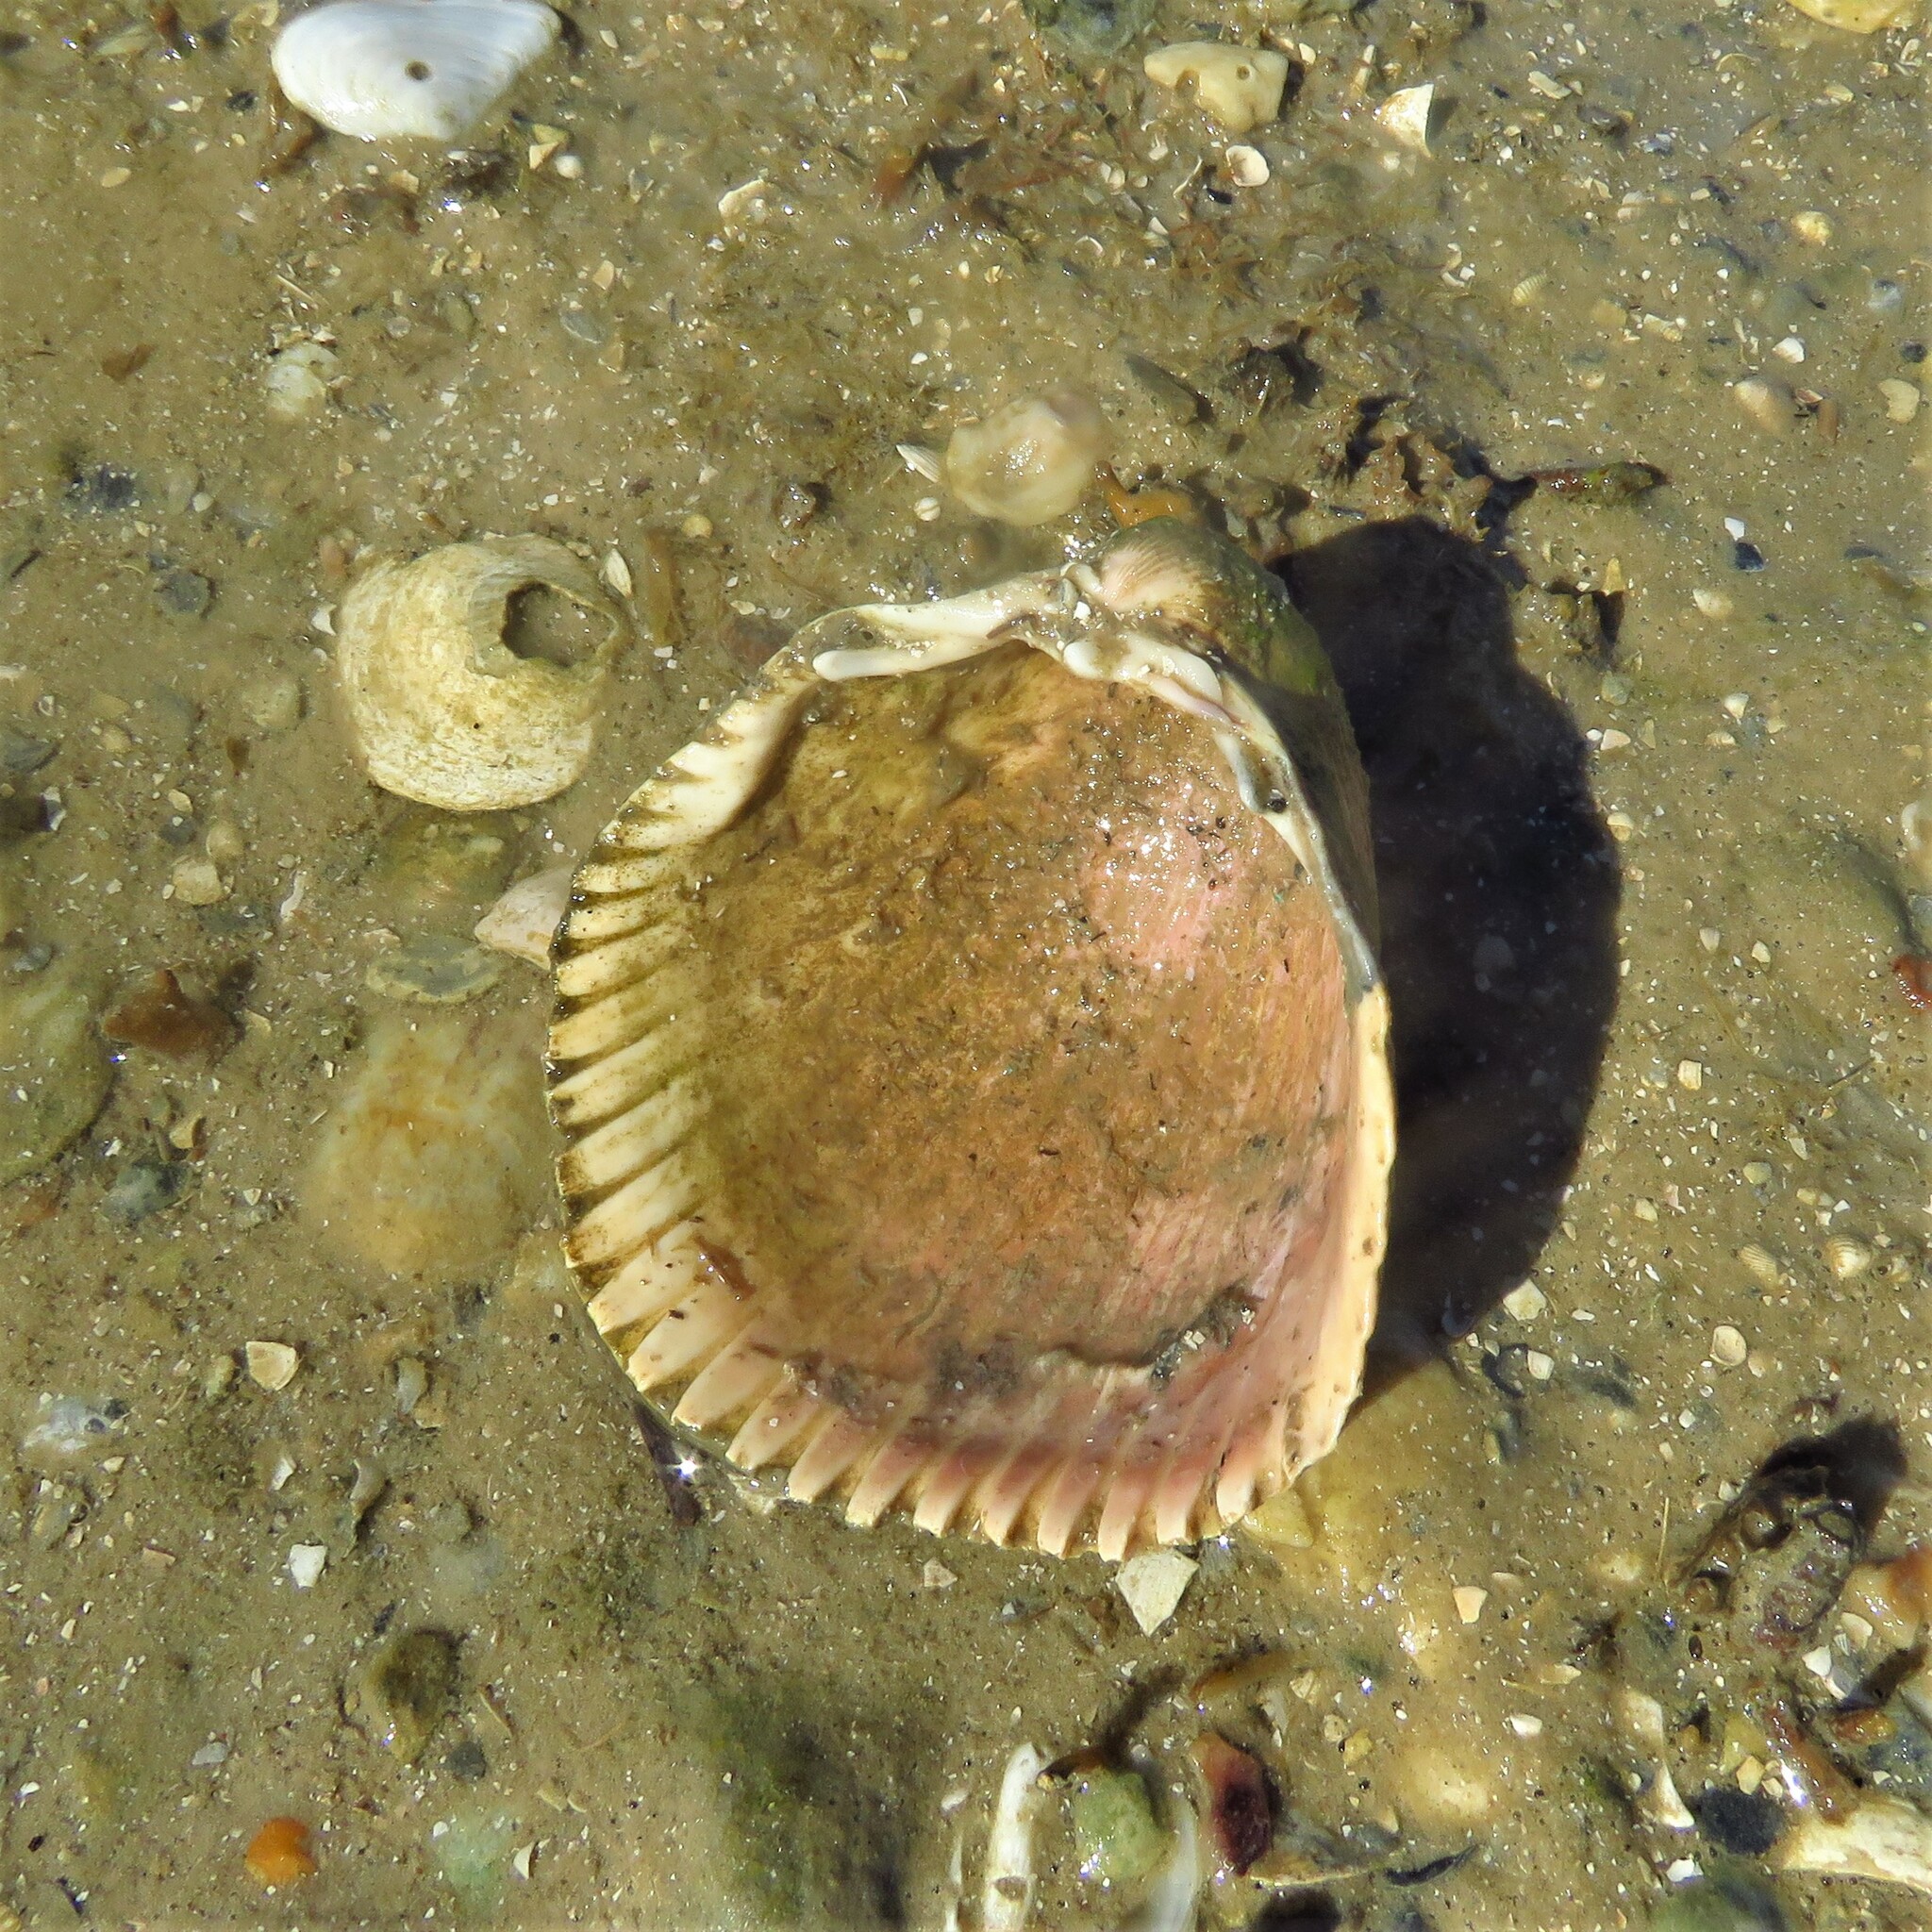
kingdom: Animalia
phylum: Mollusca
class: Bivalvia
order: Cardiida
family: Cardiidae
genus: Dinocardium
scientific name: Dinocardium robustum
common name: Atlantic giant cockle
